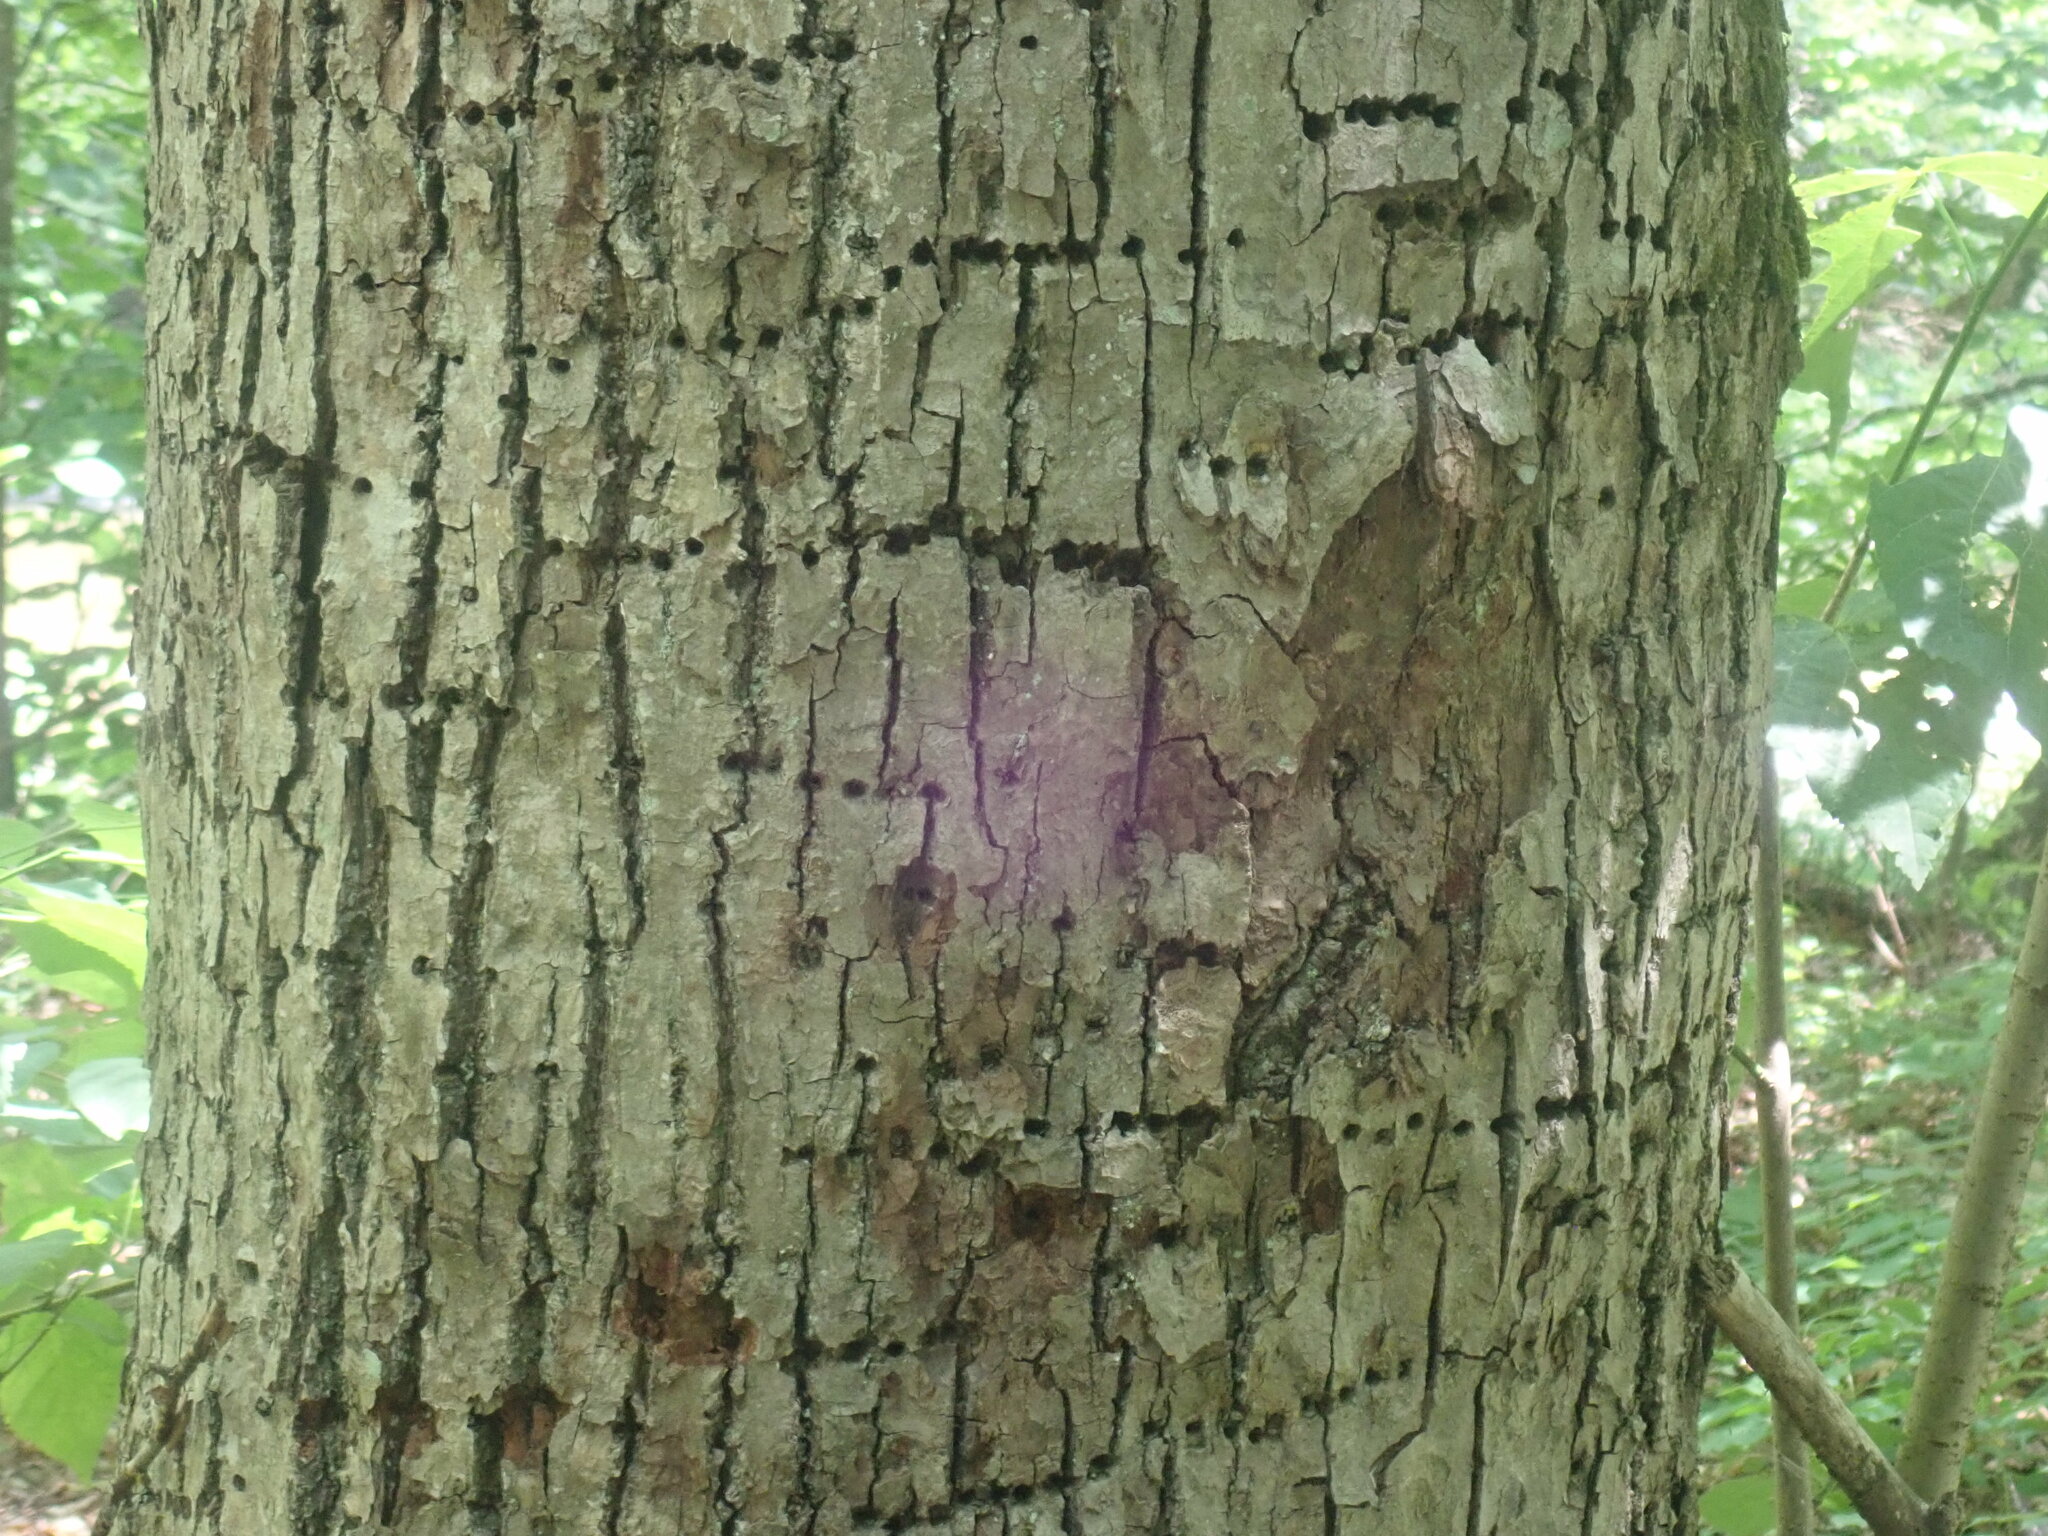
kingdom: Animalia
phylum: Chordata
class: Aves
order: Piciformes
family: Picidae
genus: Sphyrapicus
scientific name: Sphyrapicus varius
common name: Yellow-bellied sapsucker
